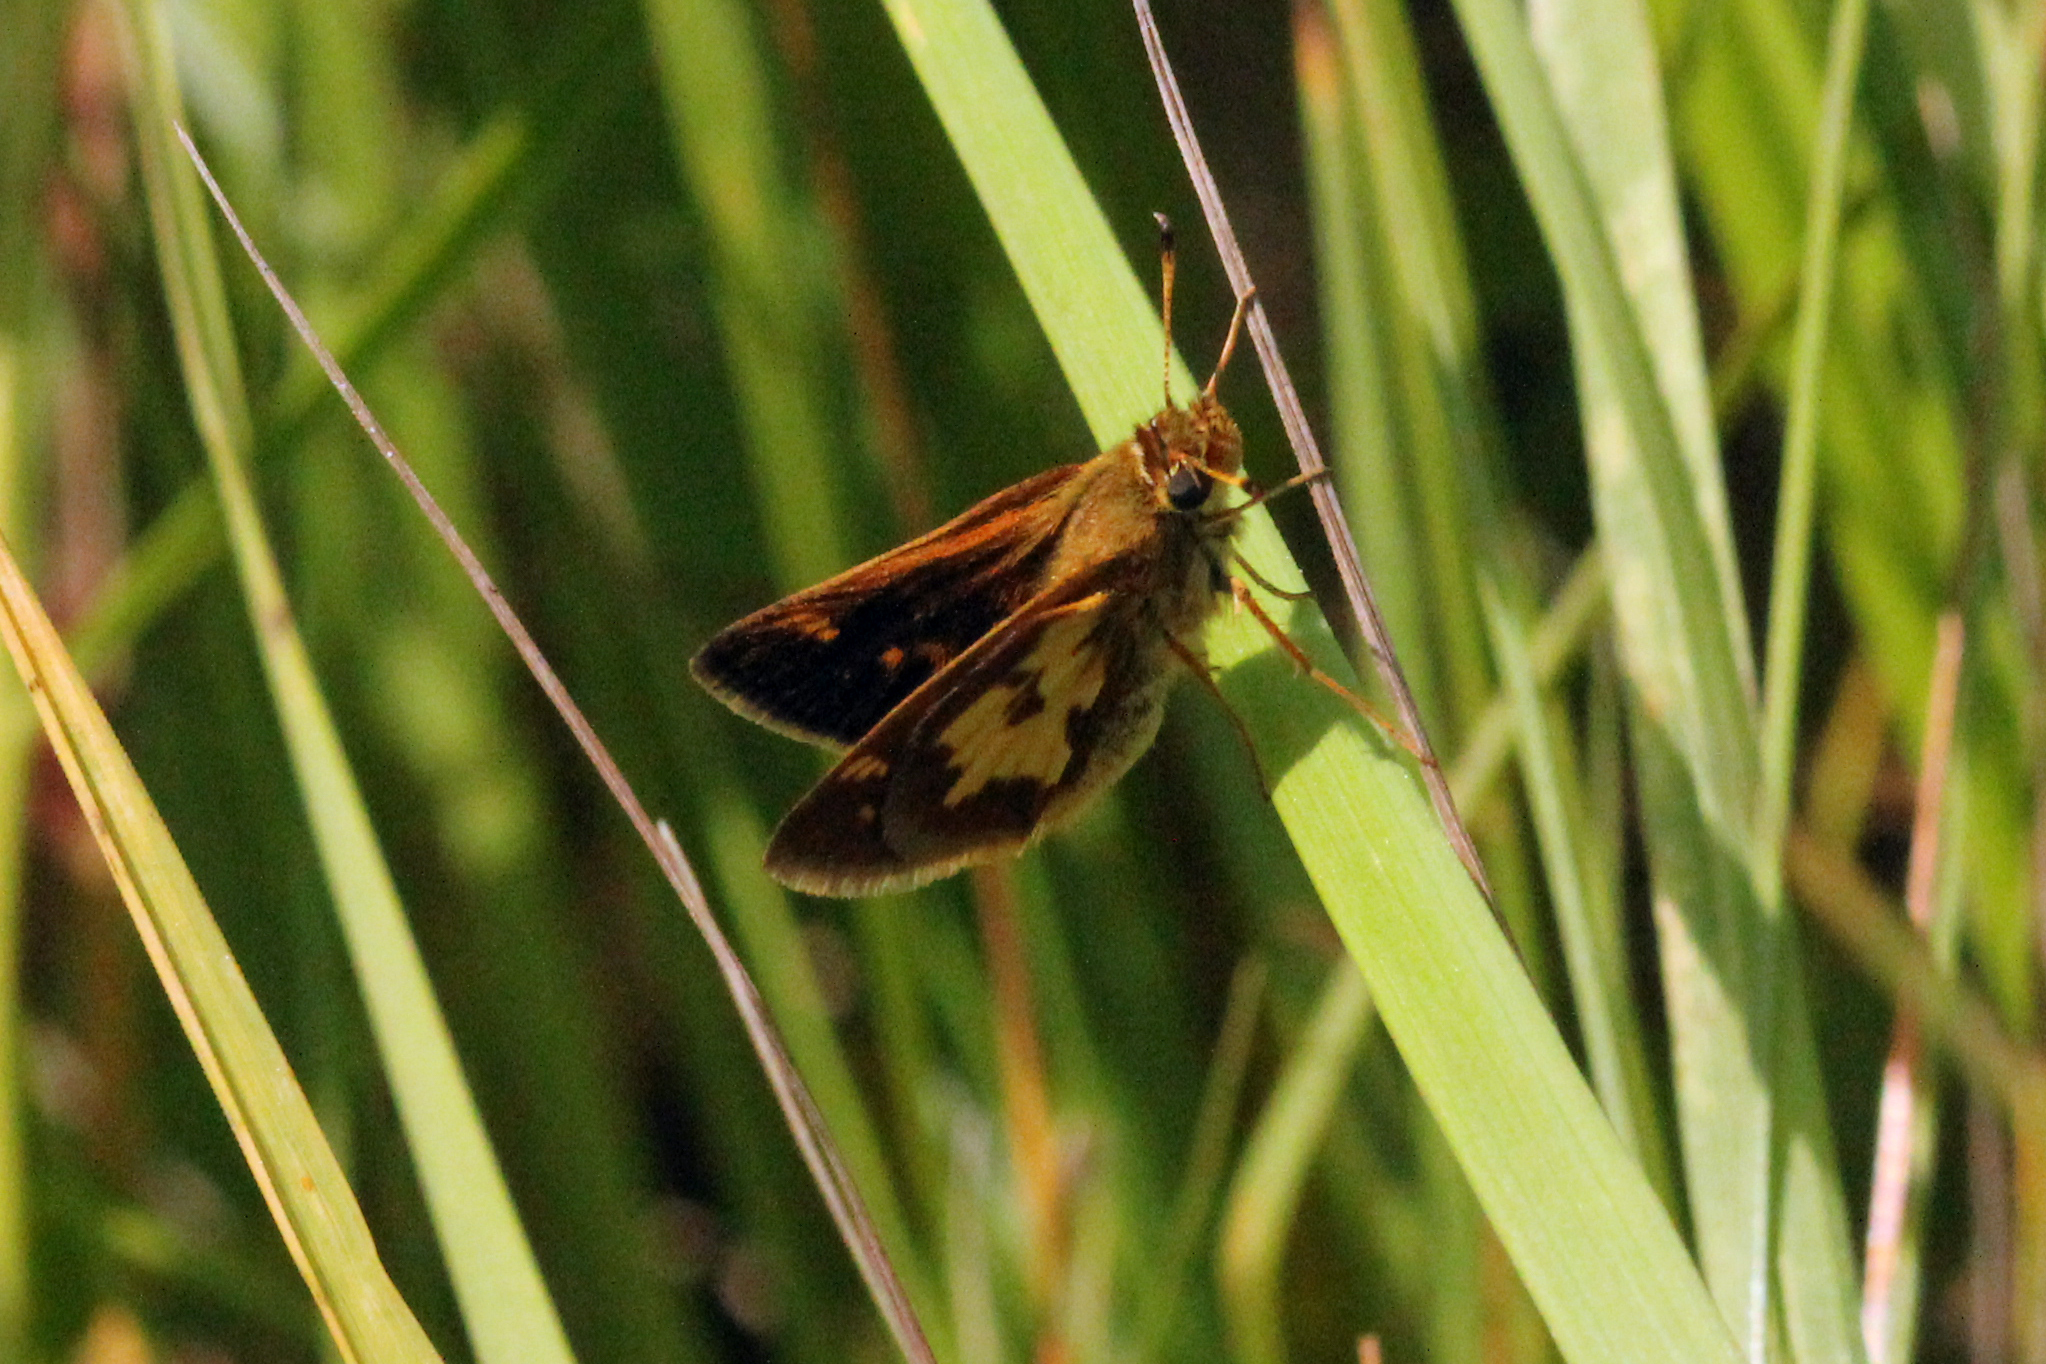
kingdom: Animalia
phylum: Arthropoda
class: Insecta
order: Lepidoptera
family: Hesperiidae
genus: Polites
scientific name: Polites coras
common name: Peck's skipper
